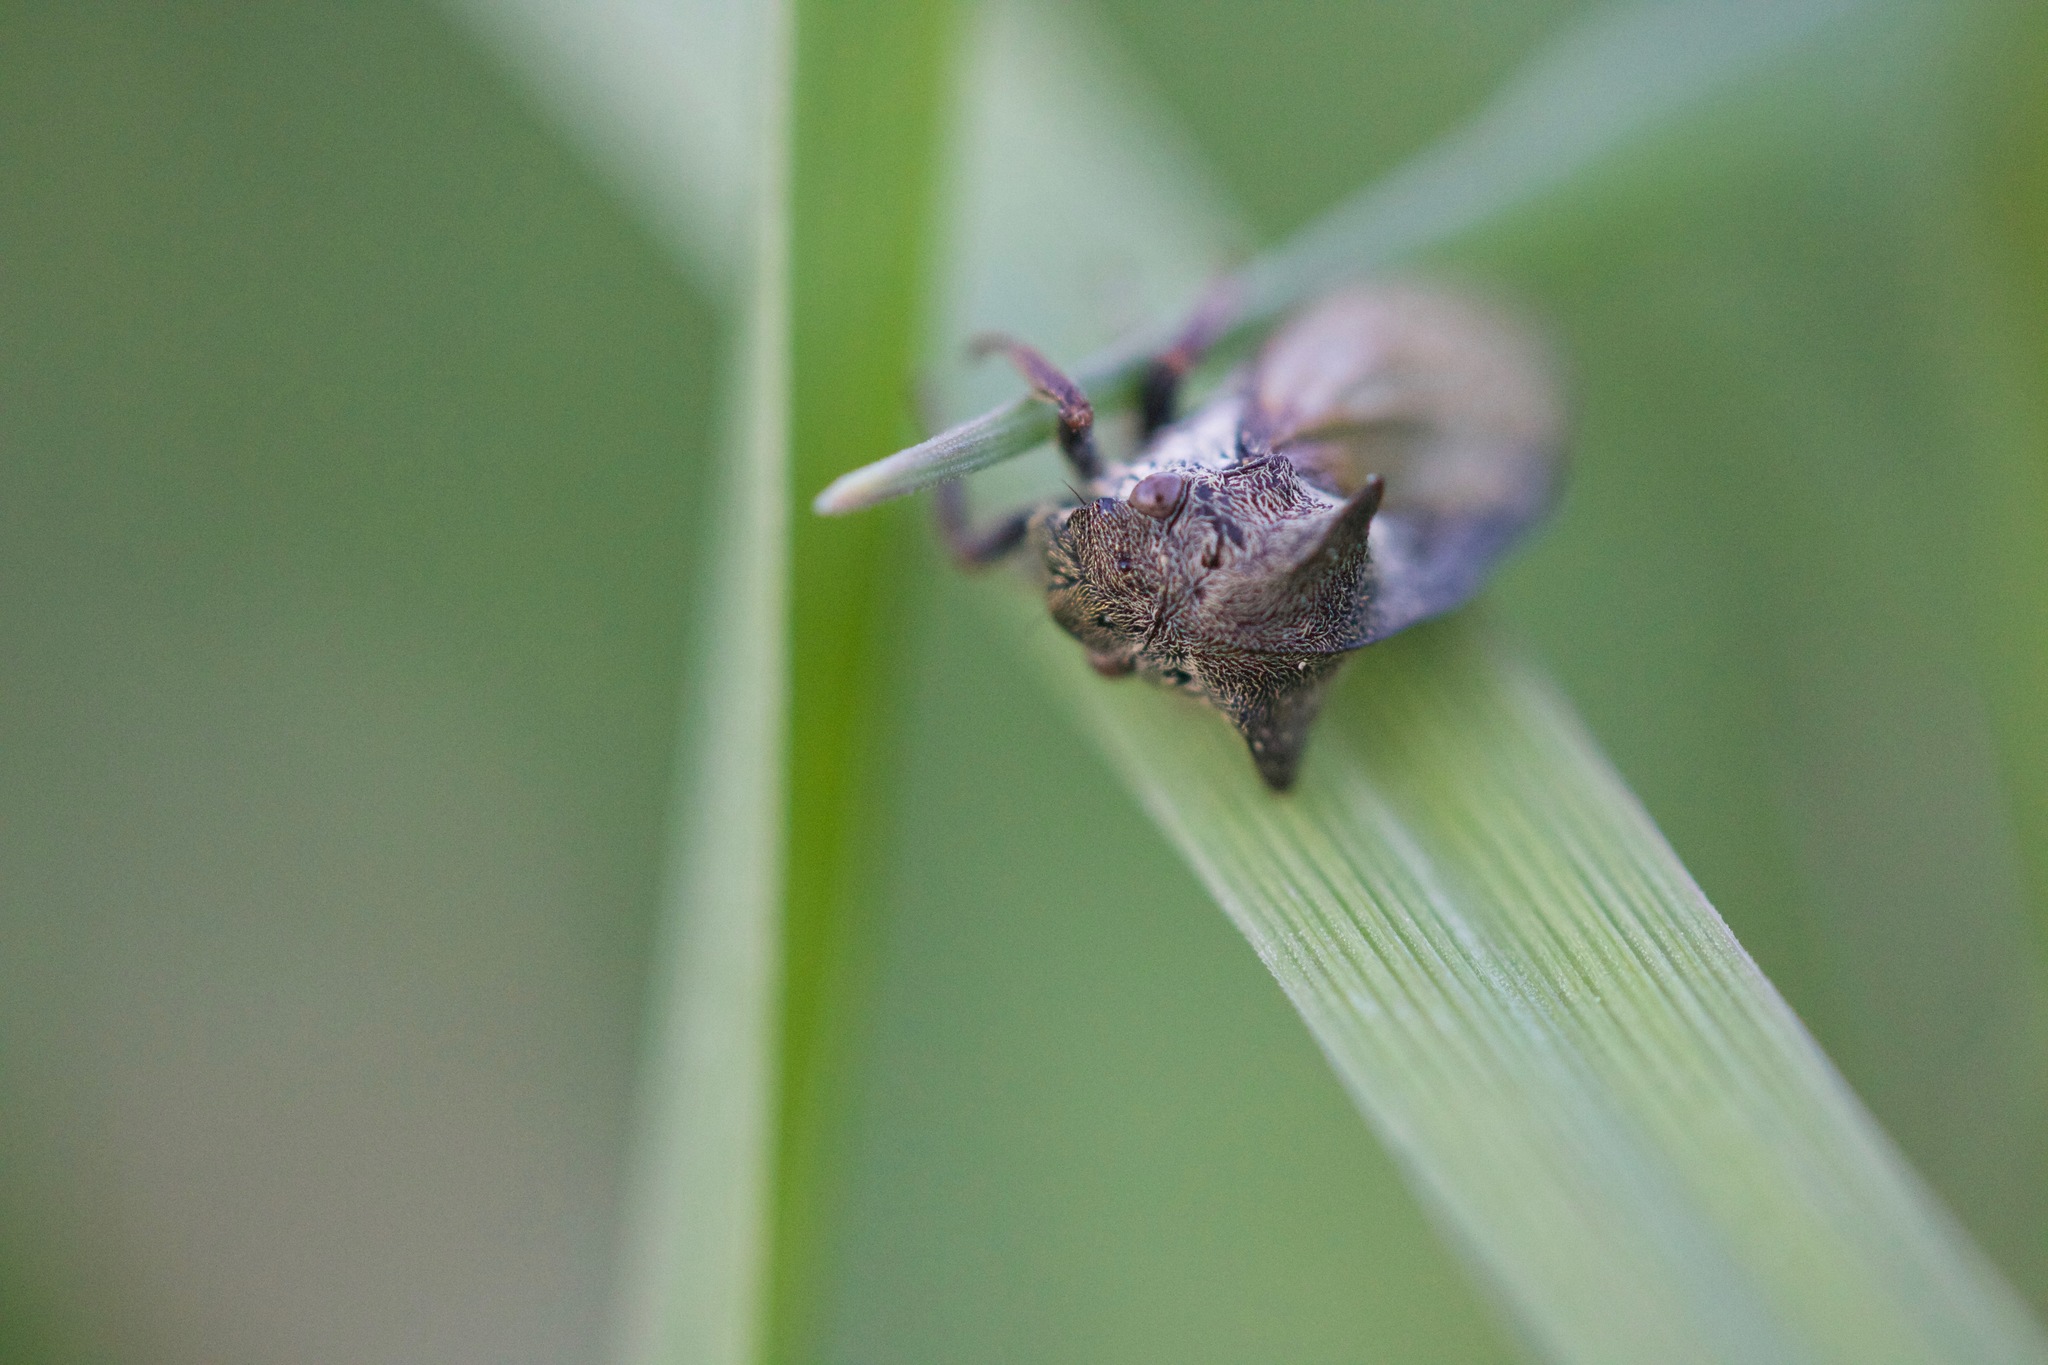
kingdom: Animalia
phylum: Arthropoda
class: Insecta
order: Hemiptera
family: Membracidae
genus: Centrotus
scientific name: Centrotus cornuta
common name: Treehopper
